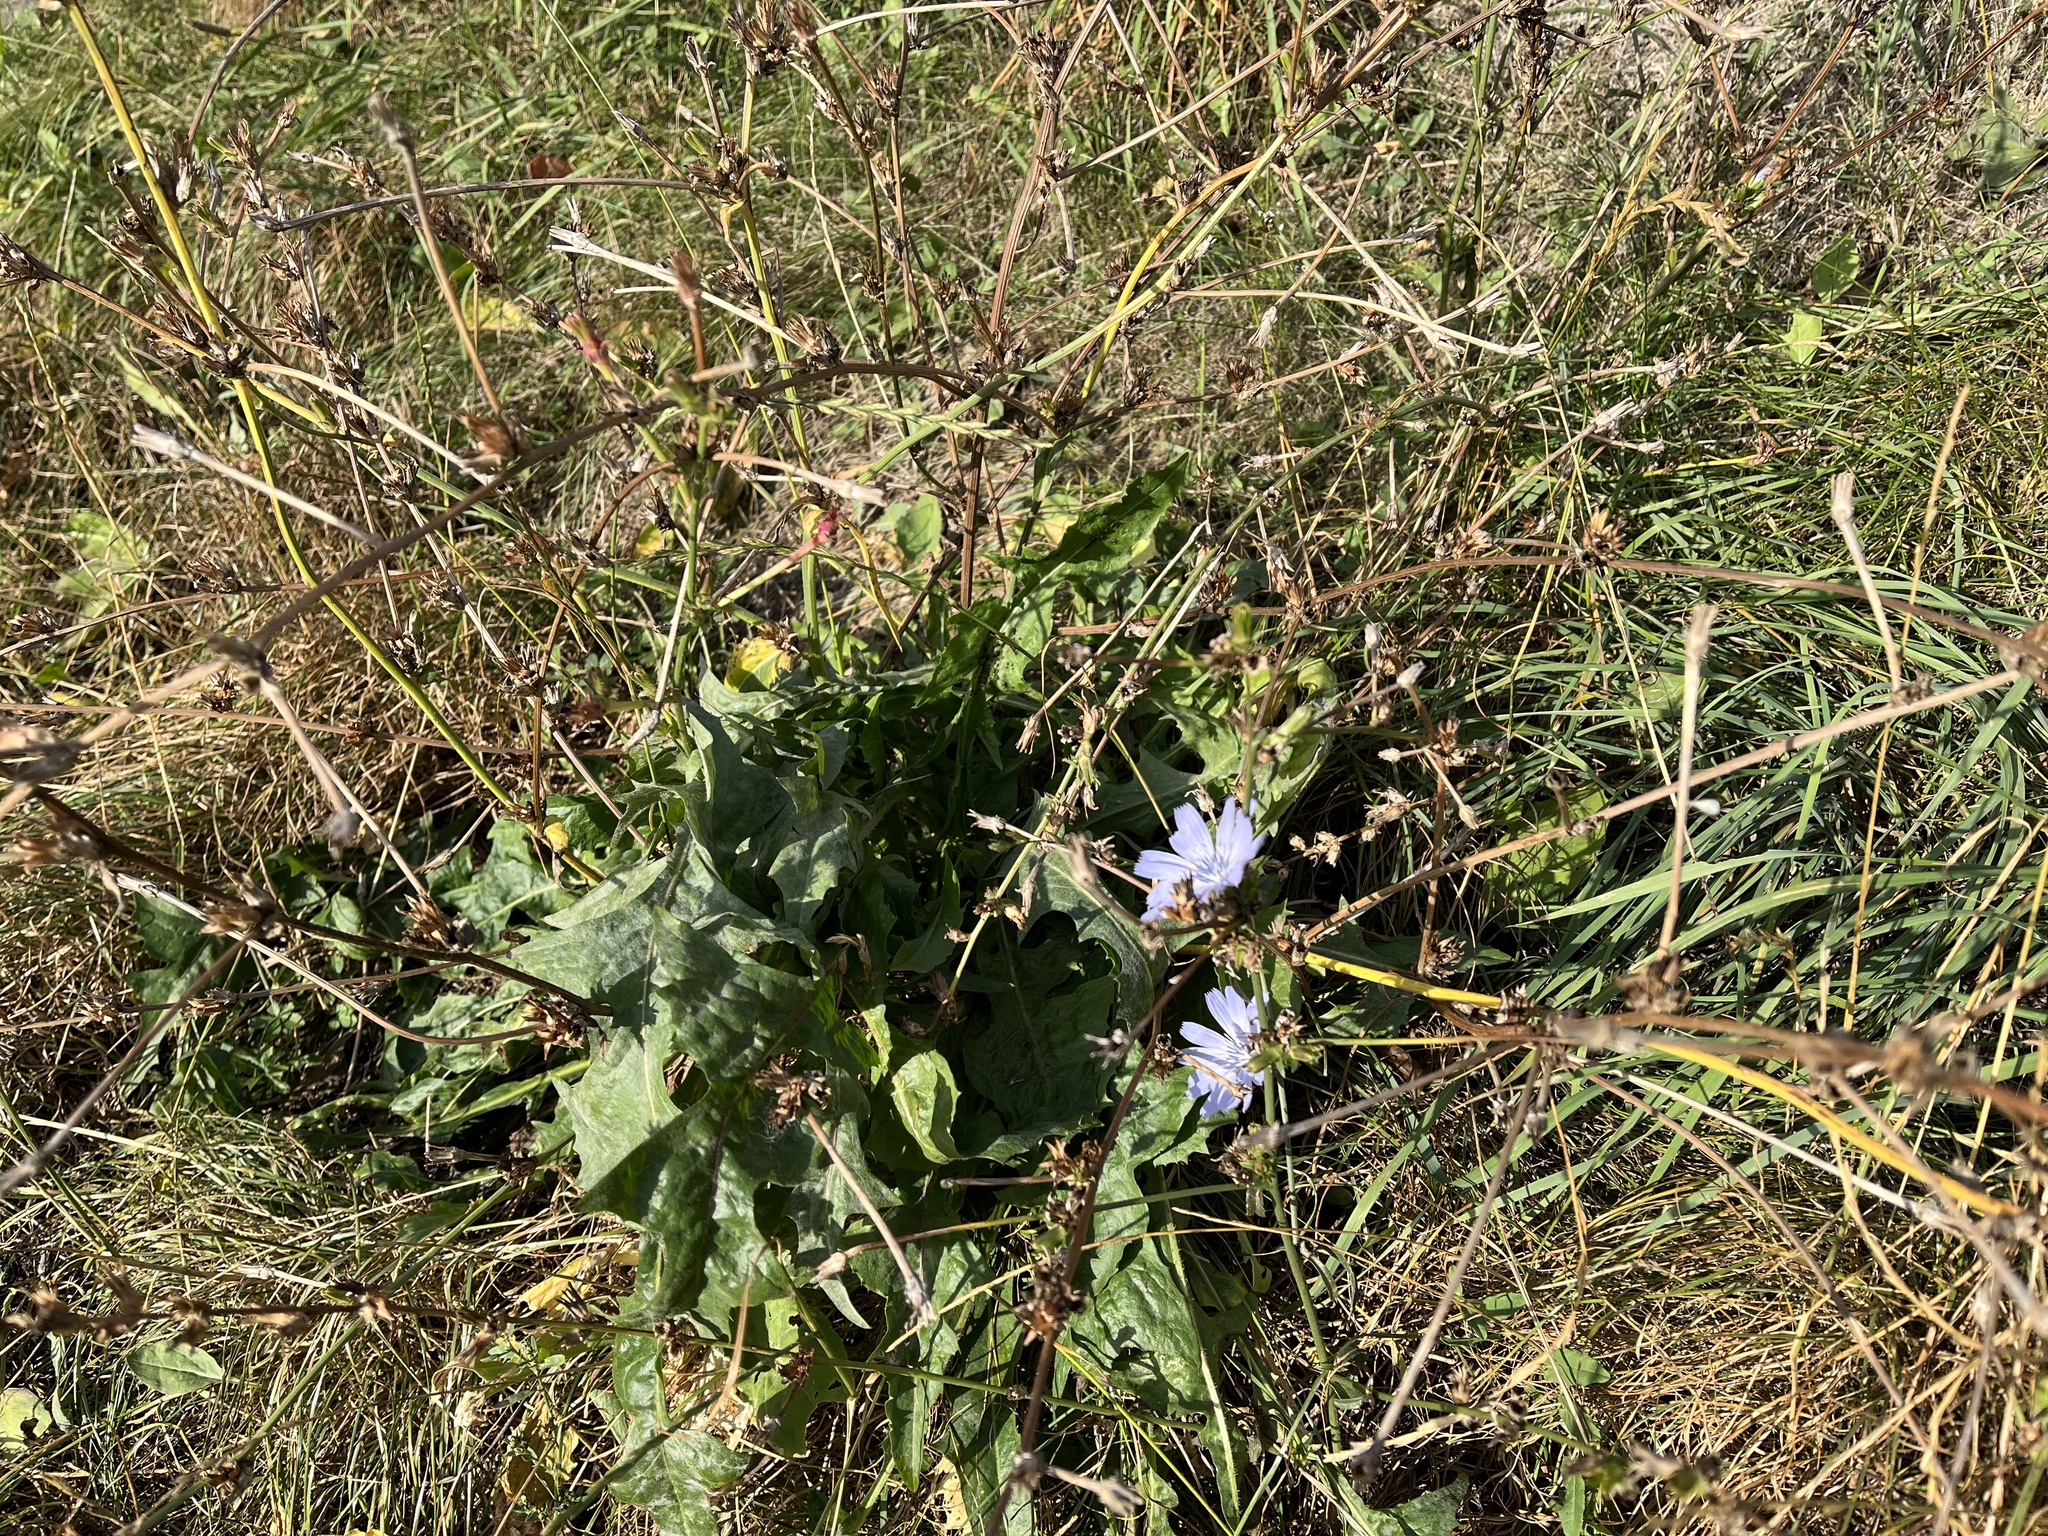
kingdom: Plantae
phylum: Tracheophyta
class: Magnoliopsida
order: Asterales
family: Asteraceae
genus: Cichorium
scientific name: Cichorium intybus
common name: Chicory
